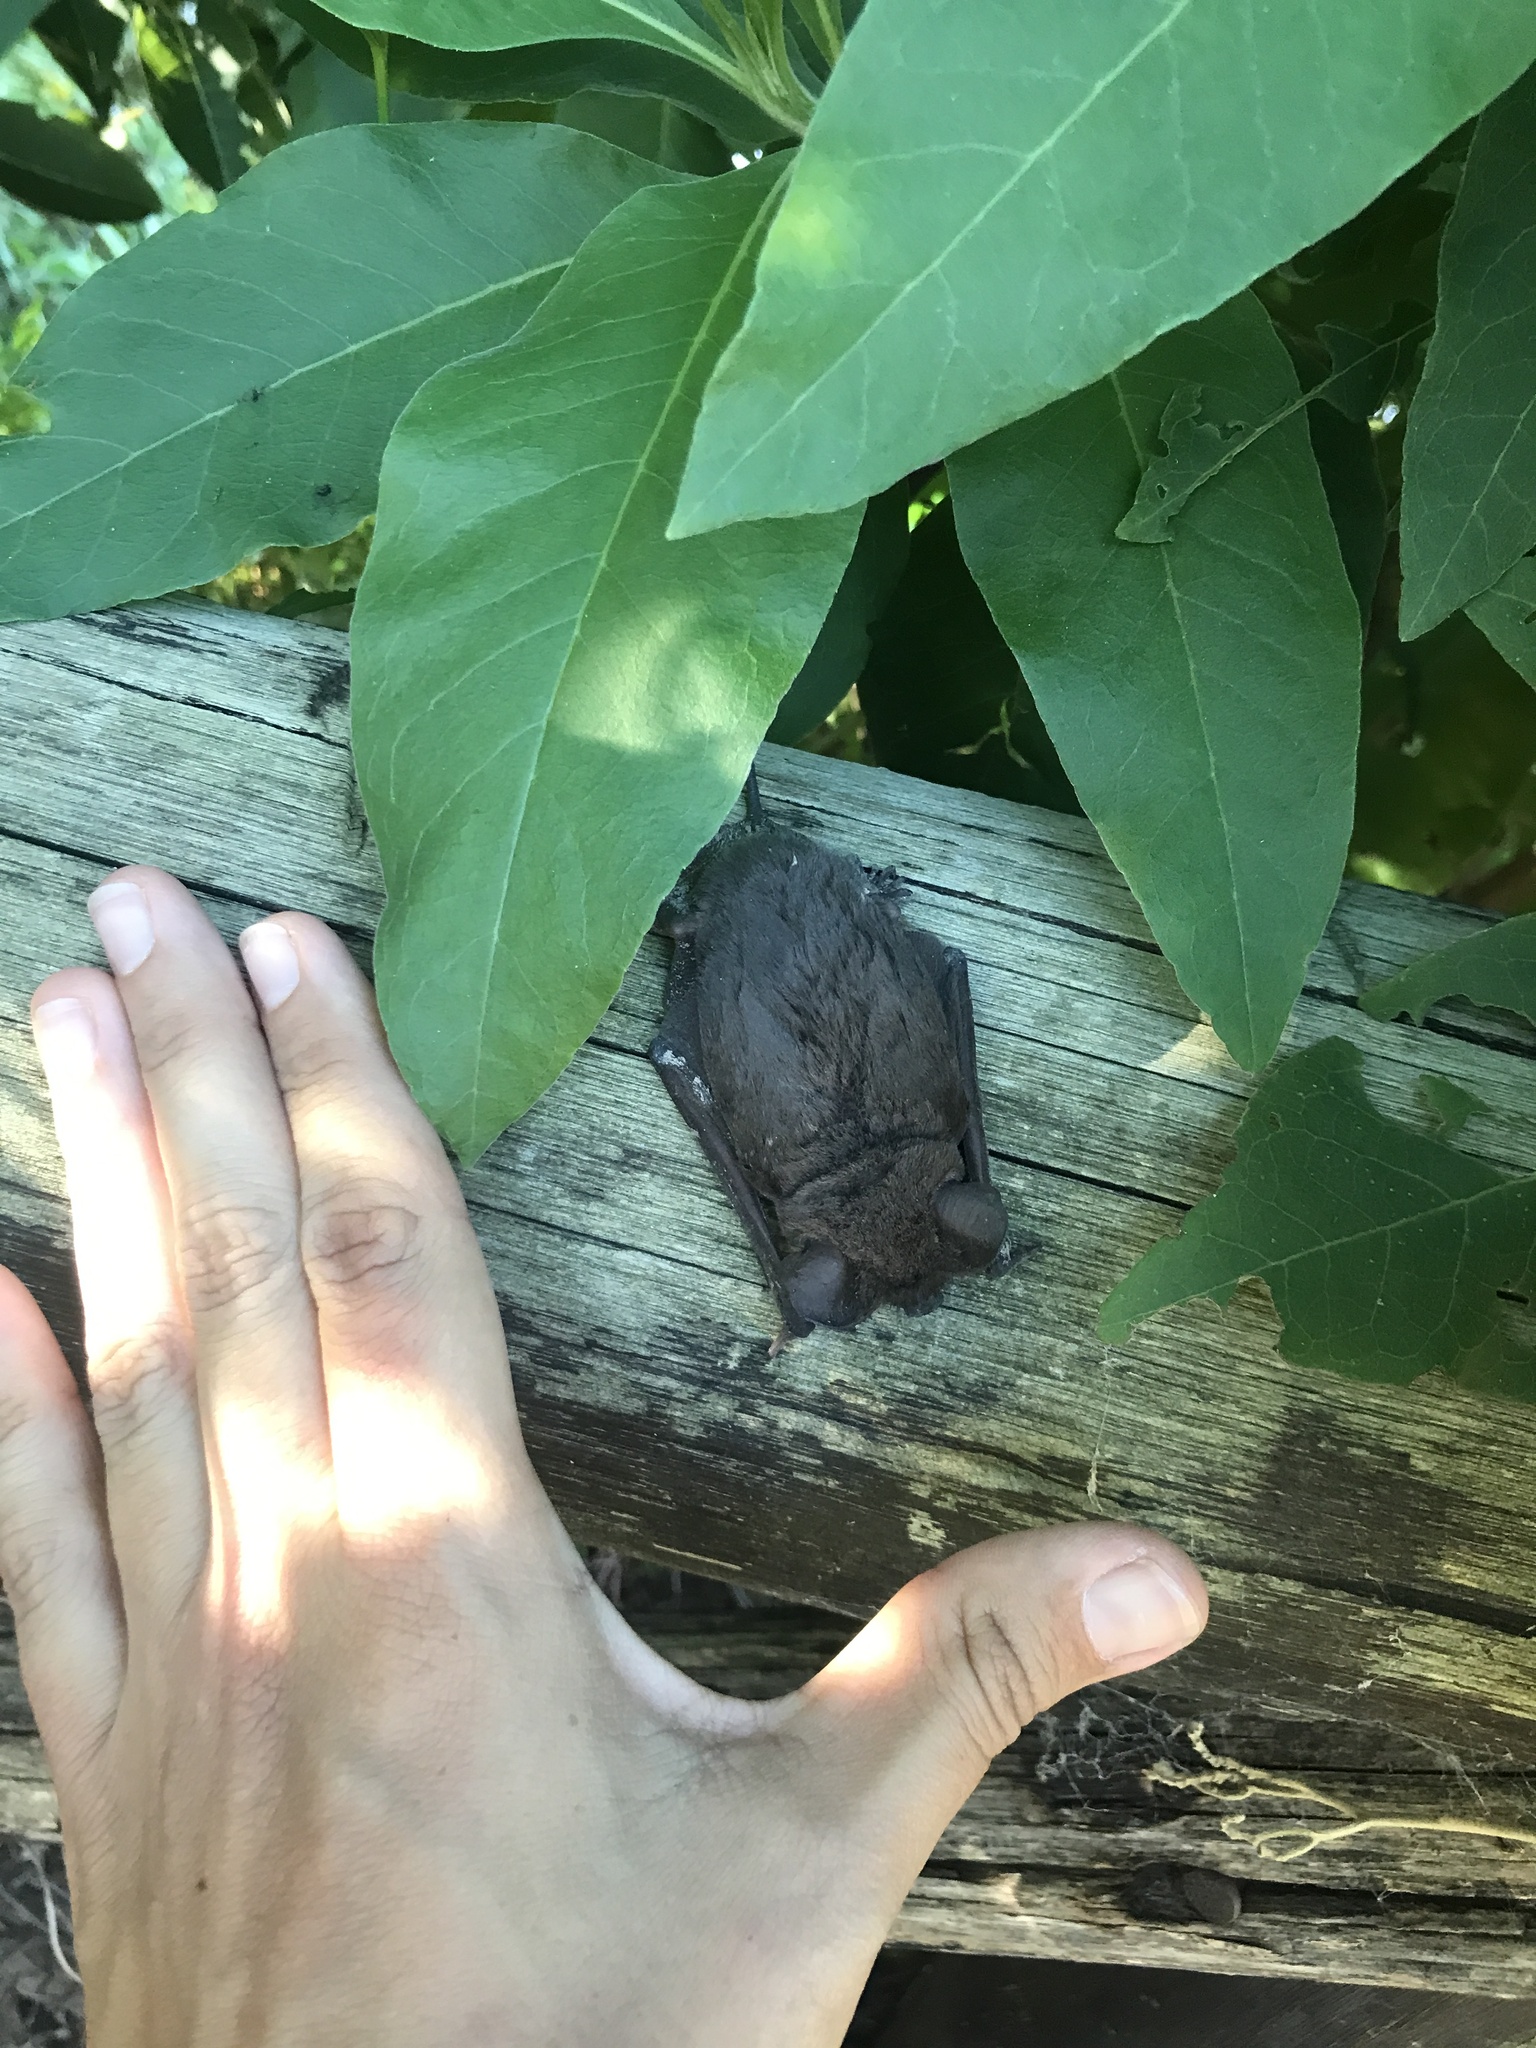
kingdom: Animalia
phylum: Chordata
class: Mammalia
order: Chiroptera
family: Molossidae
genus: Tadarida
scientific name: Tadarida brasiliensis
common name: Mexican free-tailed bat
